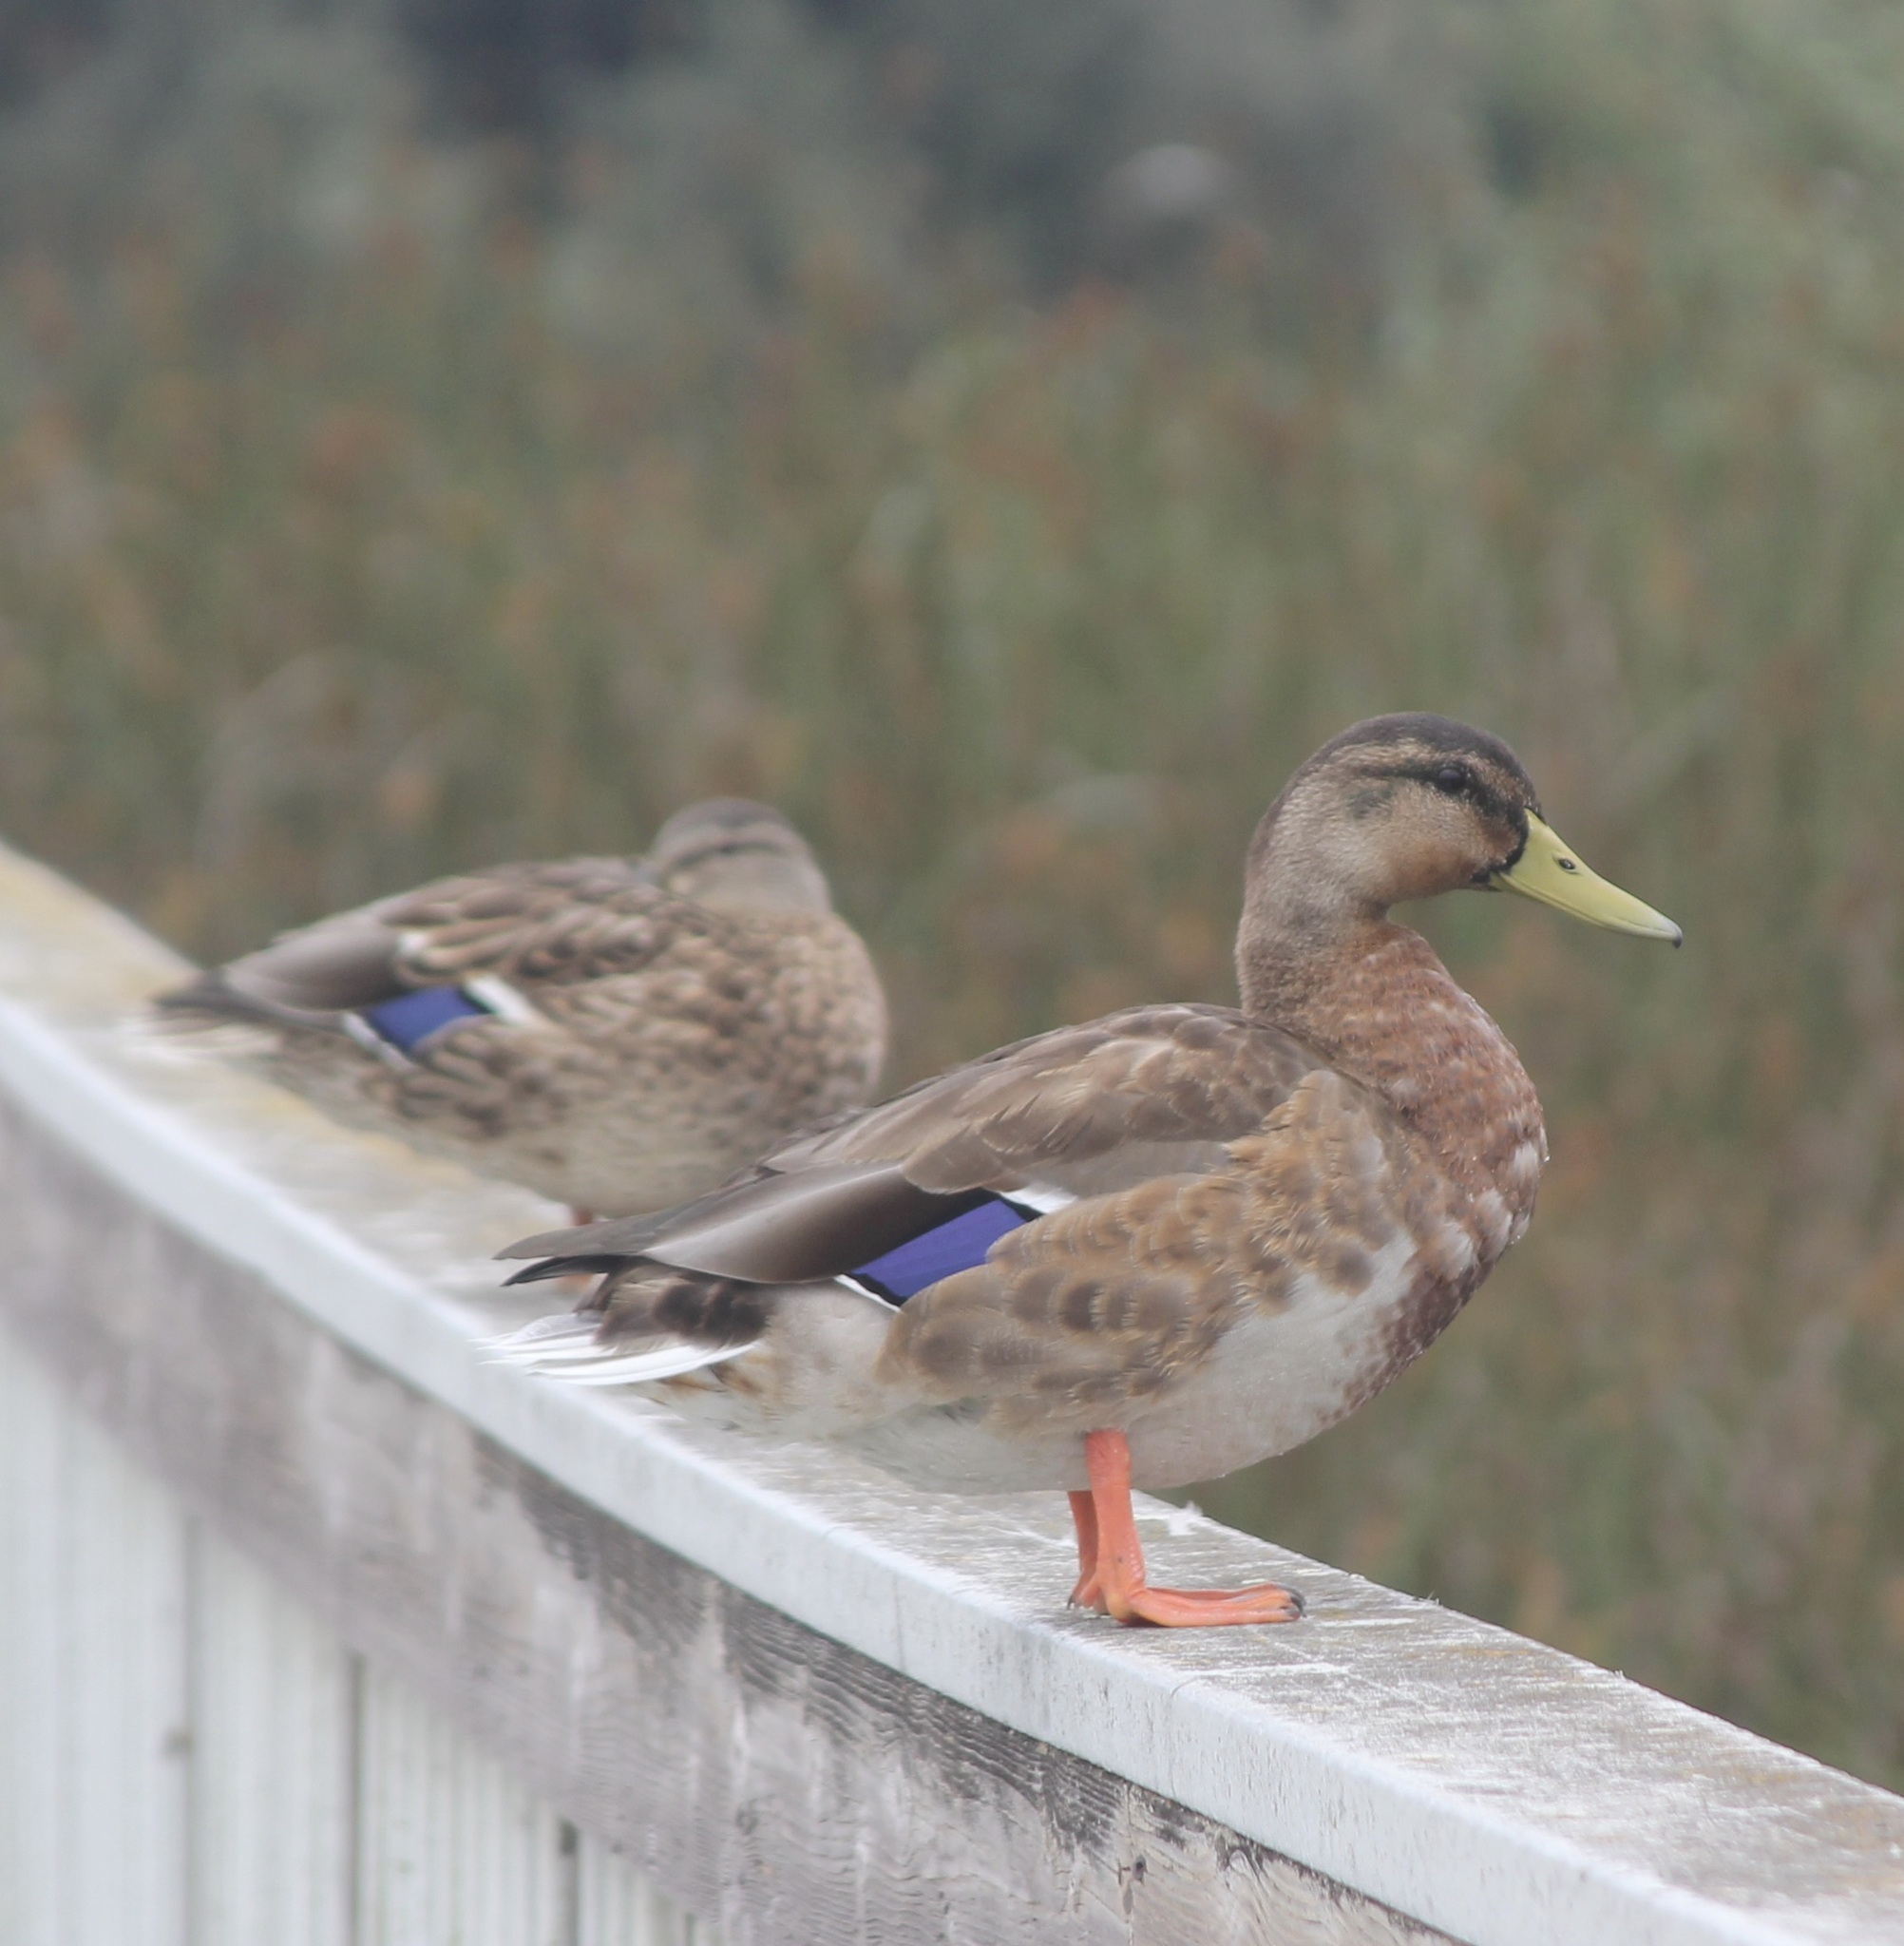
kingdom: Animalia
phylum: Chordata
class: Aves
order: Anseriformes
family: Anatidae
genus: Anas
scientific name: Anas platyrhynchos
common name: Mallard
